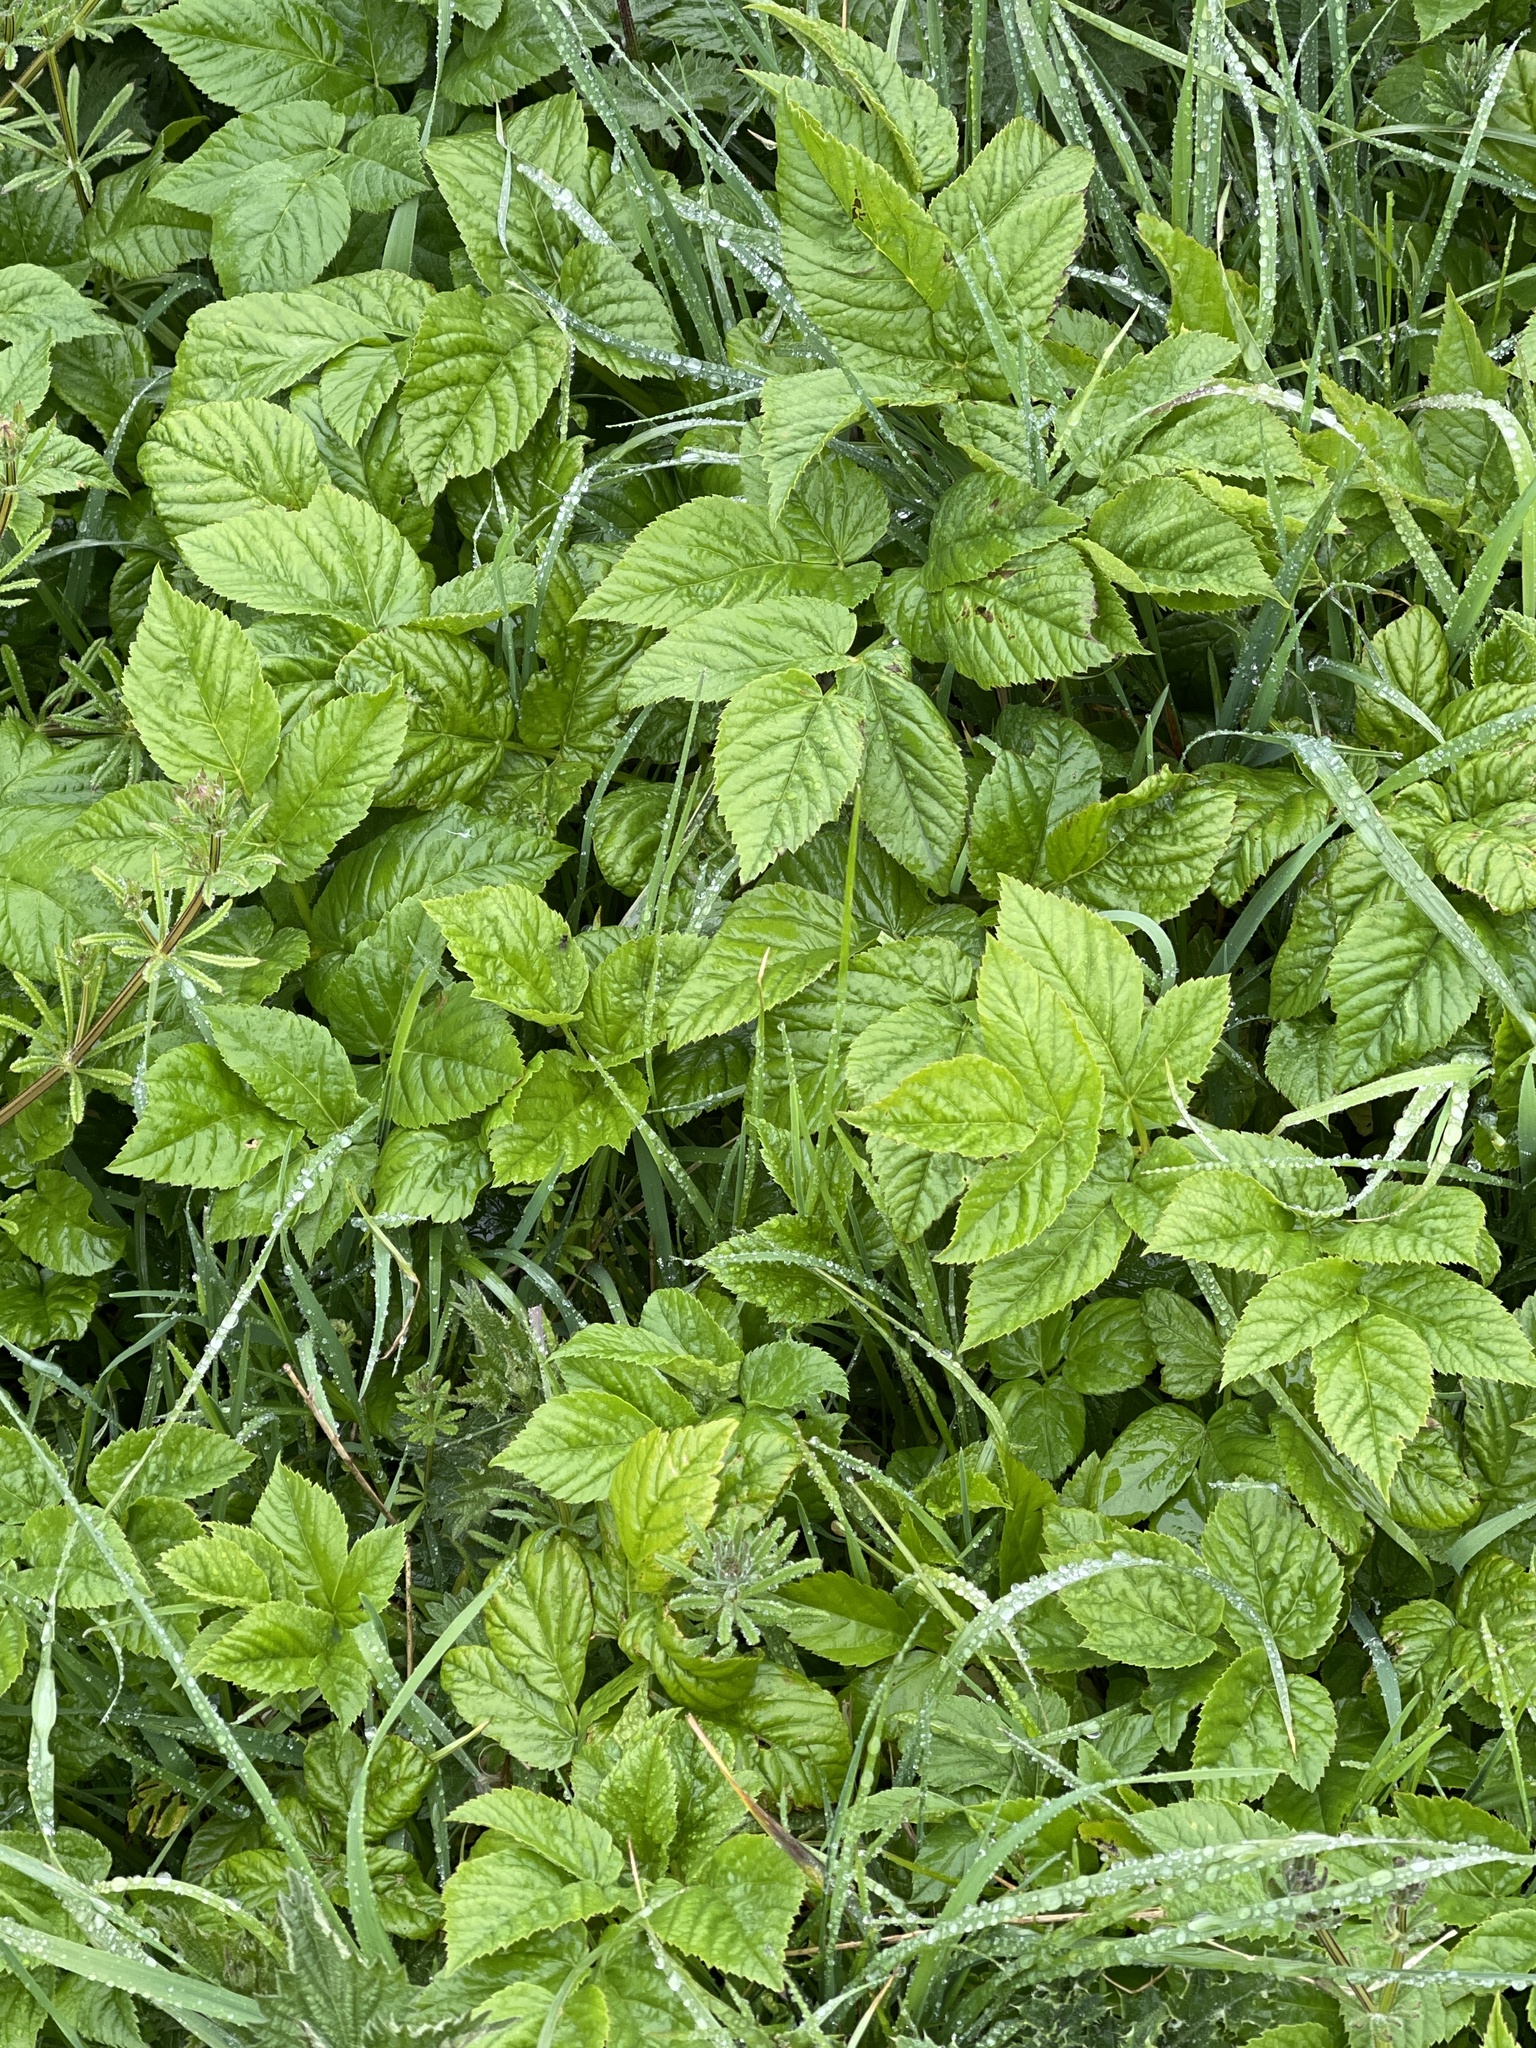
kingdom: Plantae
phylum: Tracheophyta
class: Magnoliopsida
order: Apiales
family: Apiaceae
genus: Aegopodium
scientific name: Aegopodium podagraria
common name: Ground-elder
